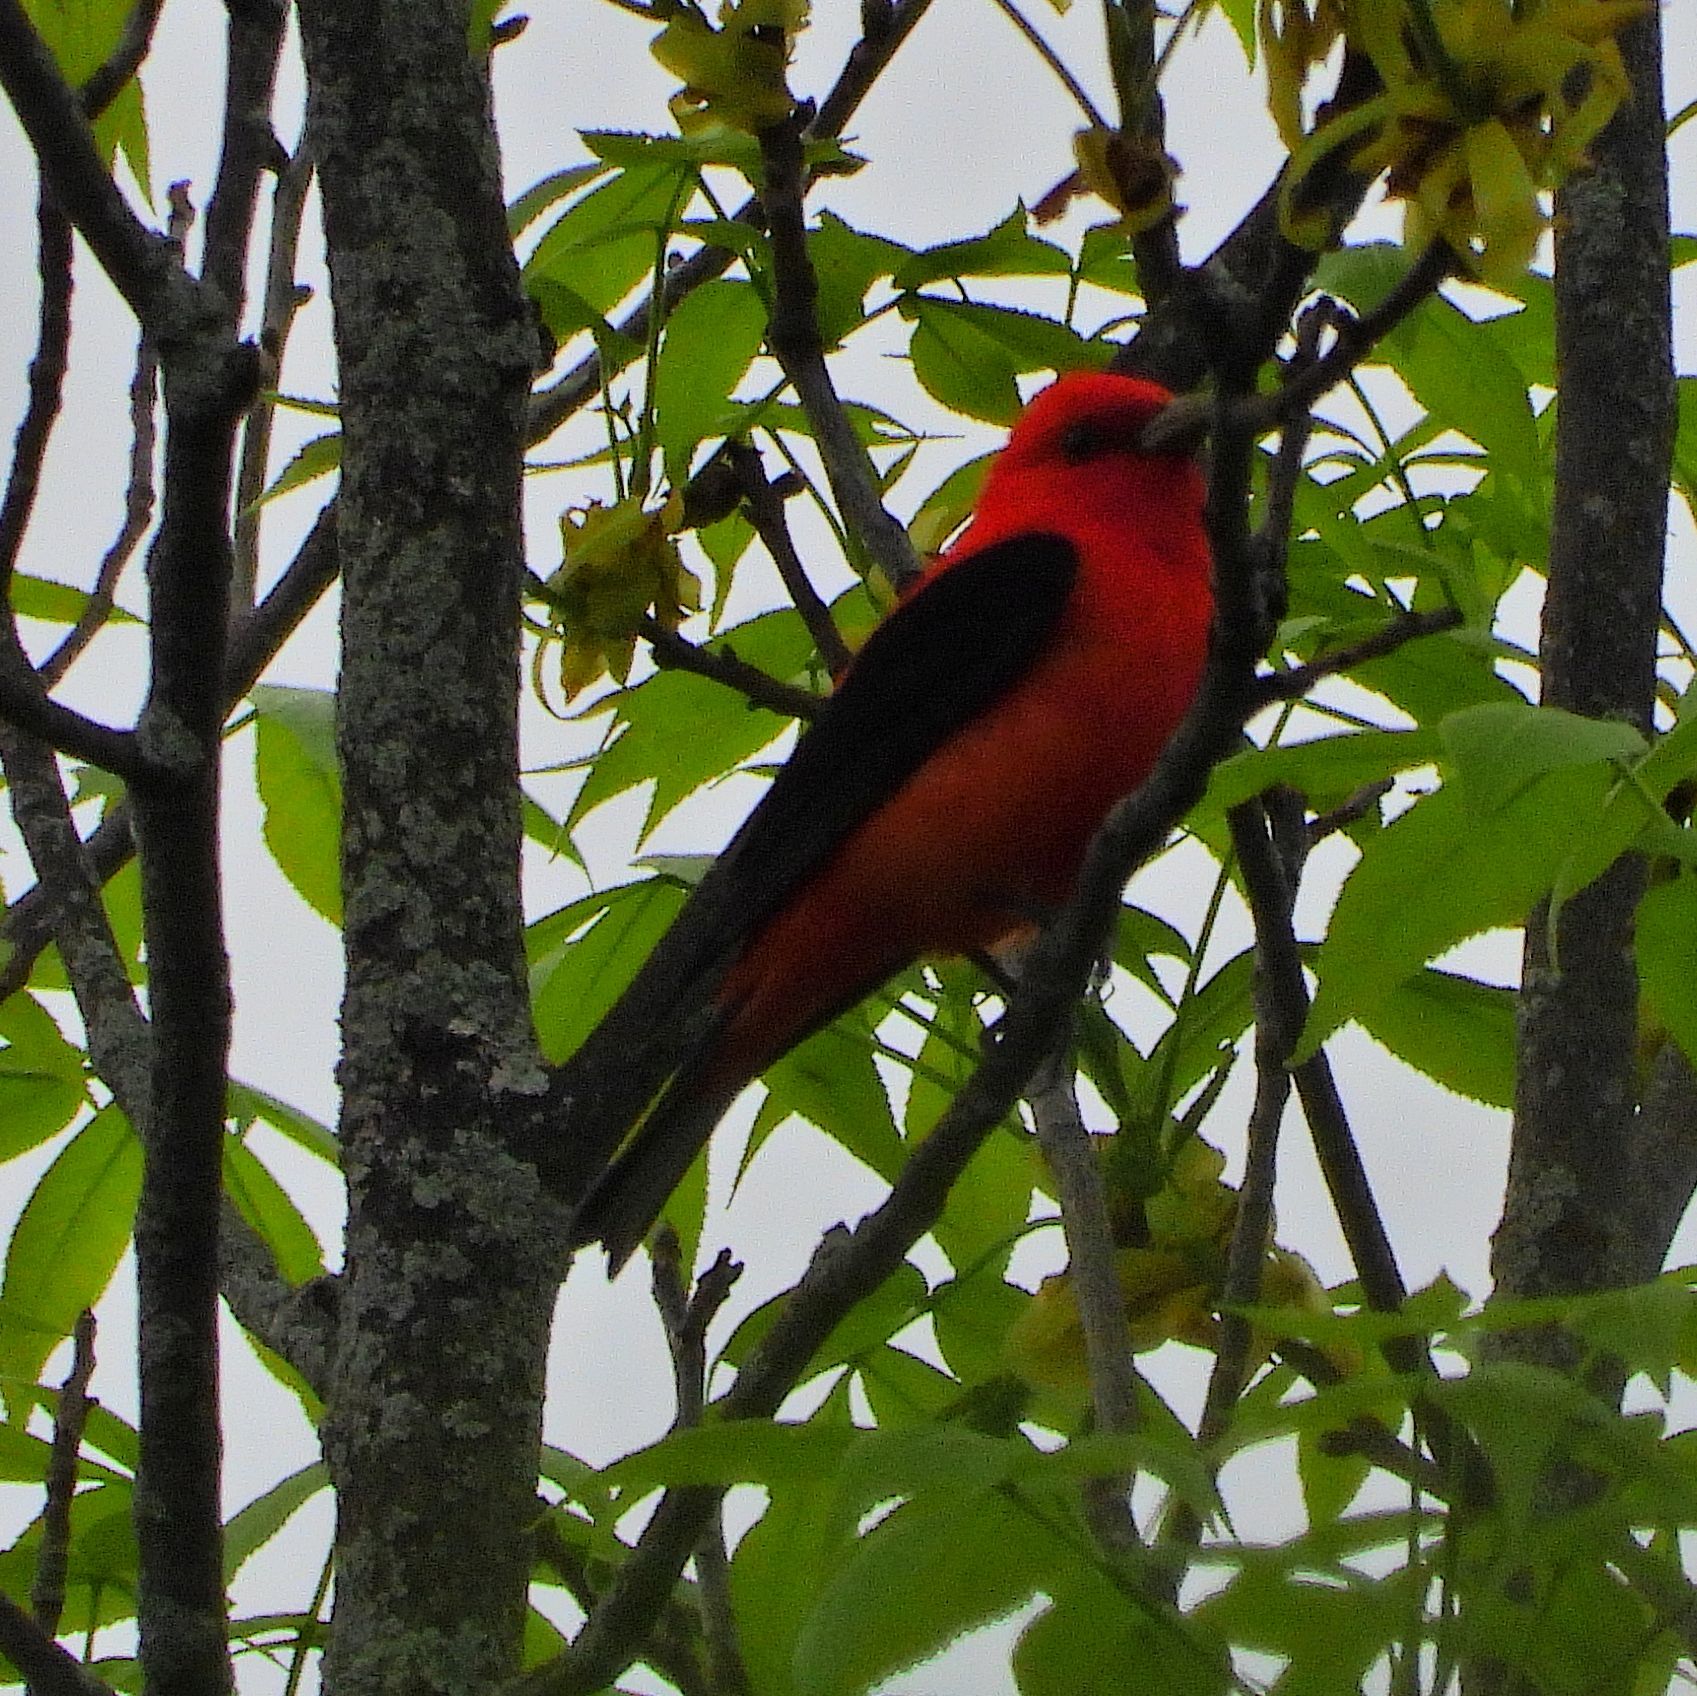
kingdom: Animalia
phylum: Chordata
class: Aves
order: Passeriformes
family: Cardinalidae
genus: Piranga
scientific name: Piranga olivacea
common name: Scarlet tanager
